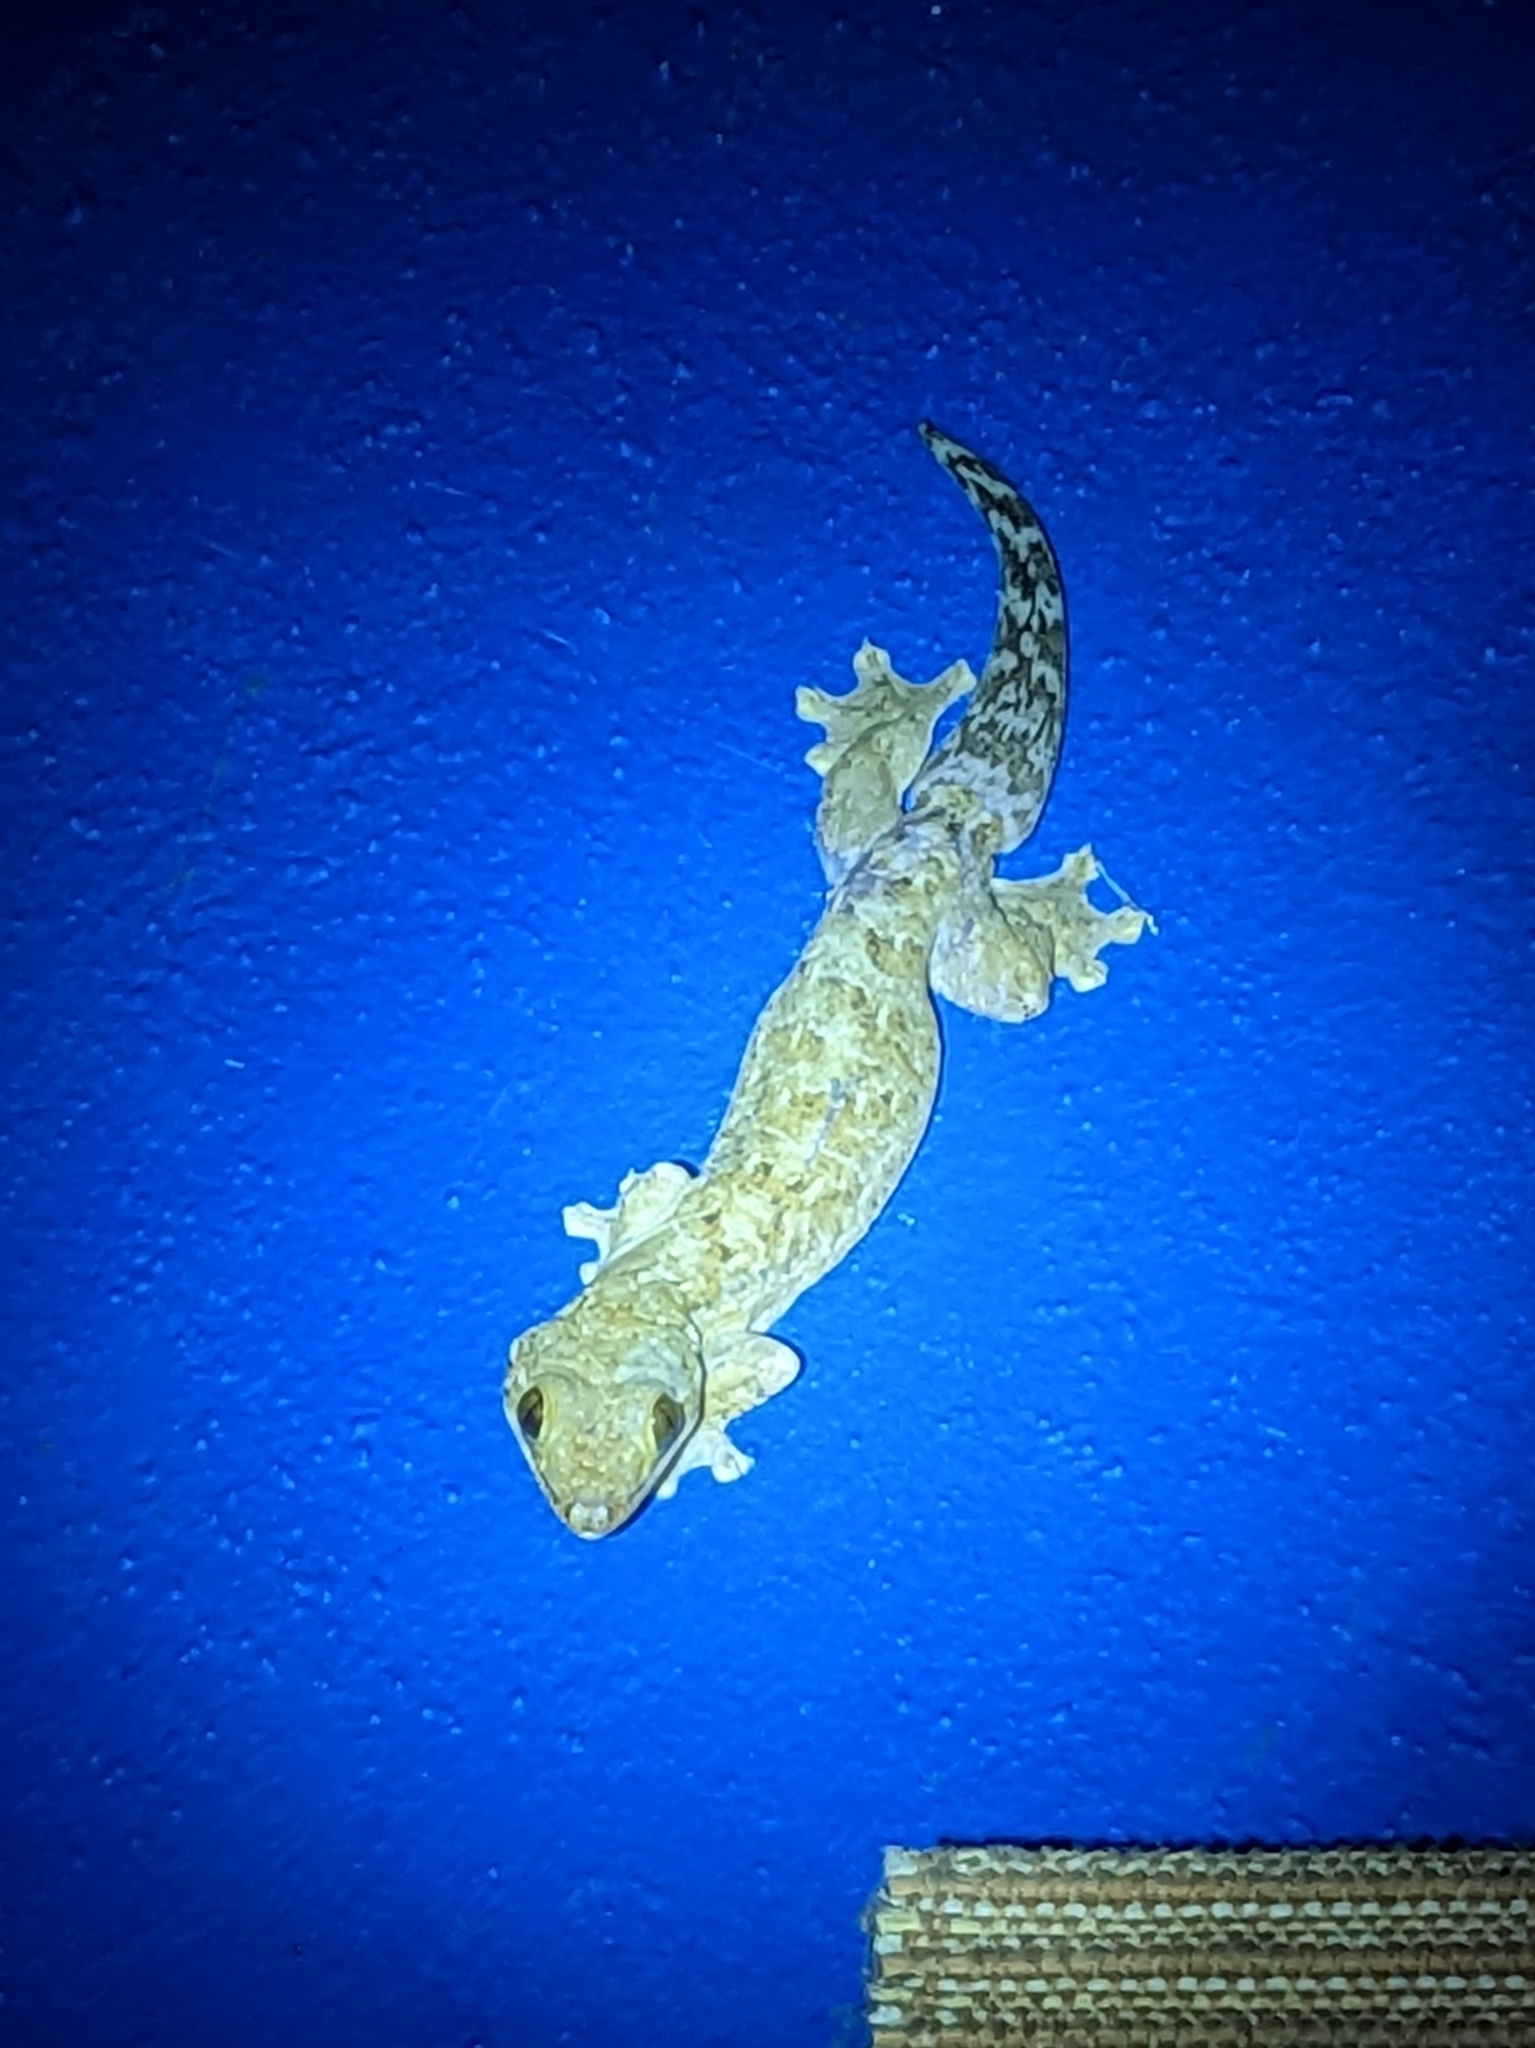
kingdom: Animalia
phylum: Chordata
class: Squamata
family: Phyllodactylidae
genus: Thecadactylus
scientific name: Thecadactylus rapicauda
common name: Turnip-tailed gecko
